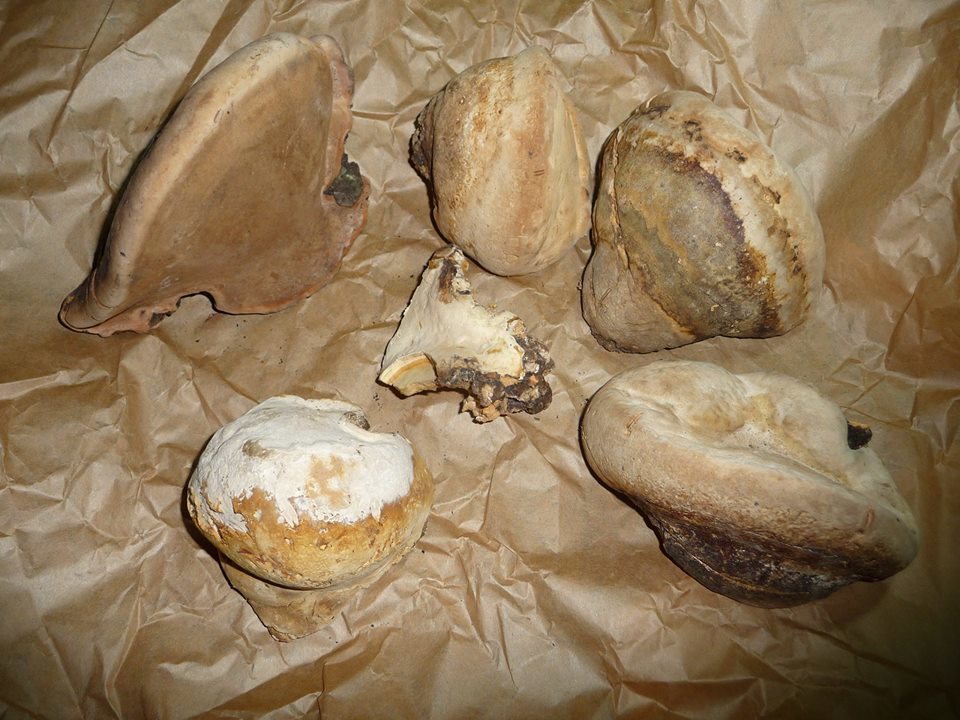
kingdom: Fungi
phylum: Basidiomycota
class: Agaricomycetes
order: Polyporales
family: Fomitopsidaceae
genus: Fomitopsis
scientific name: Fomitopsis mounceae
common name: Northern red belt
